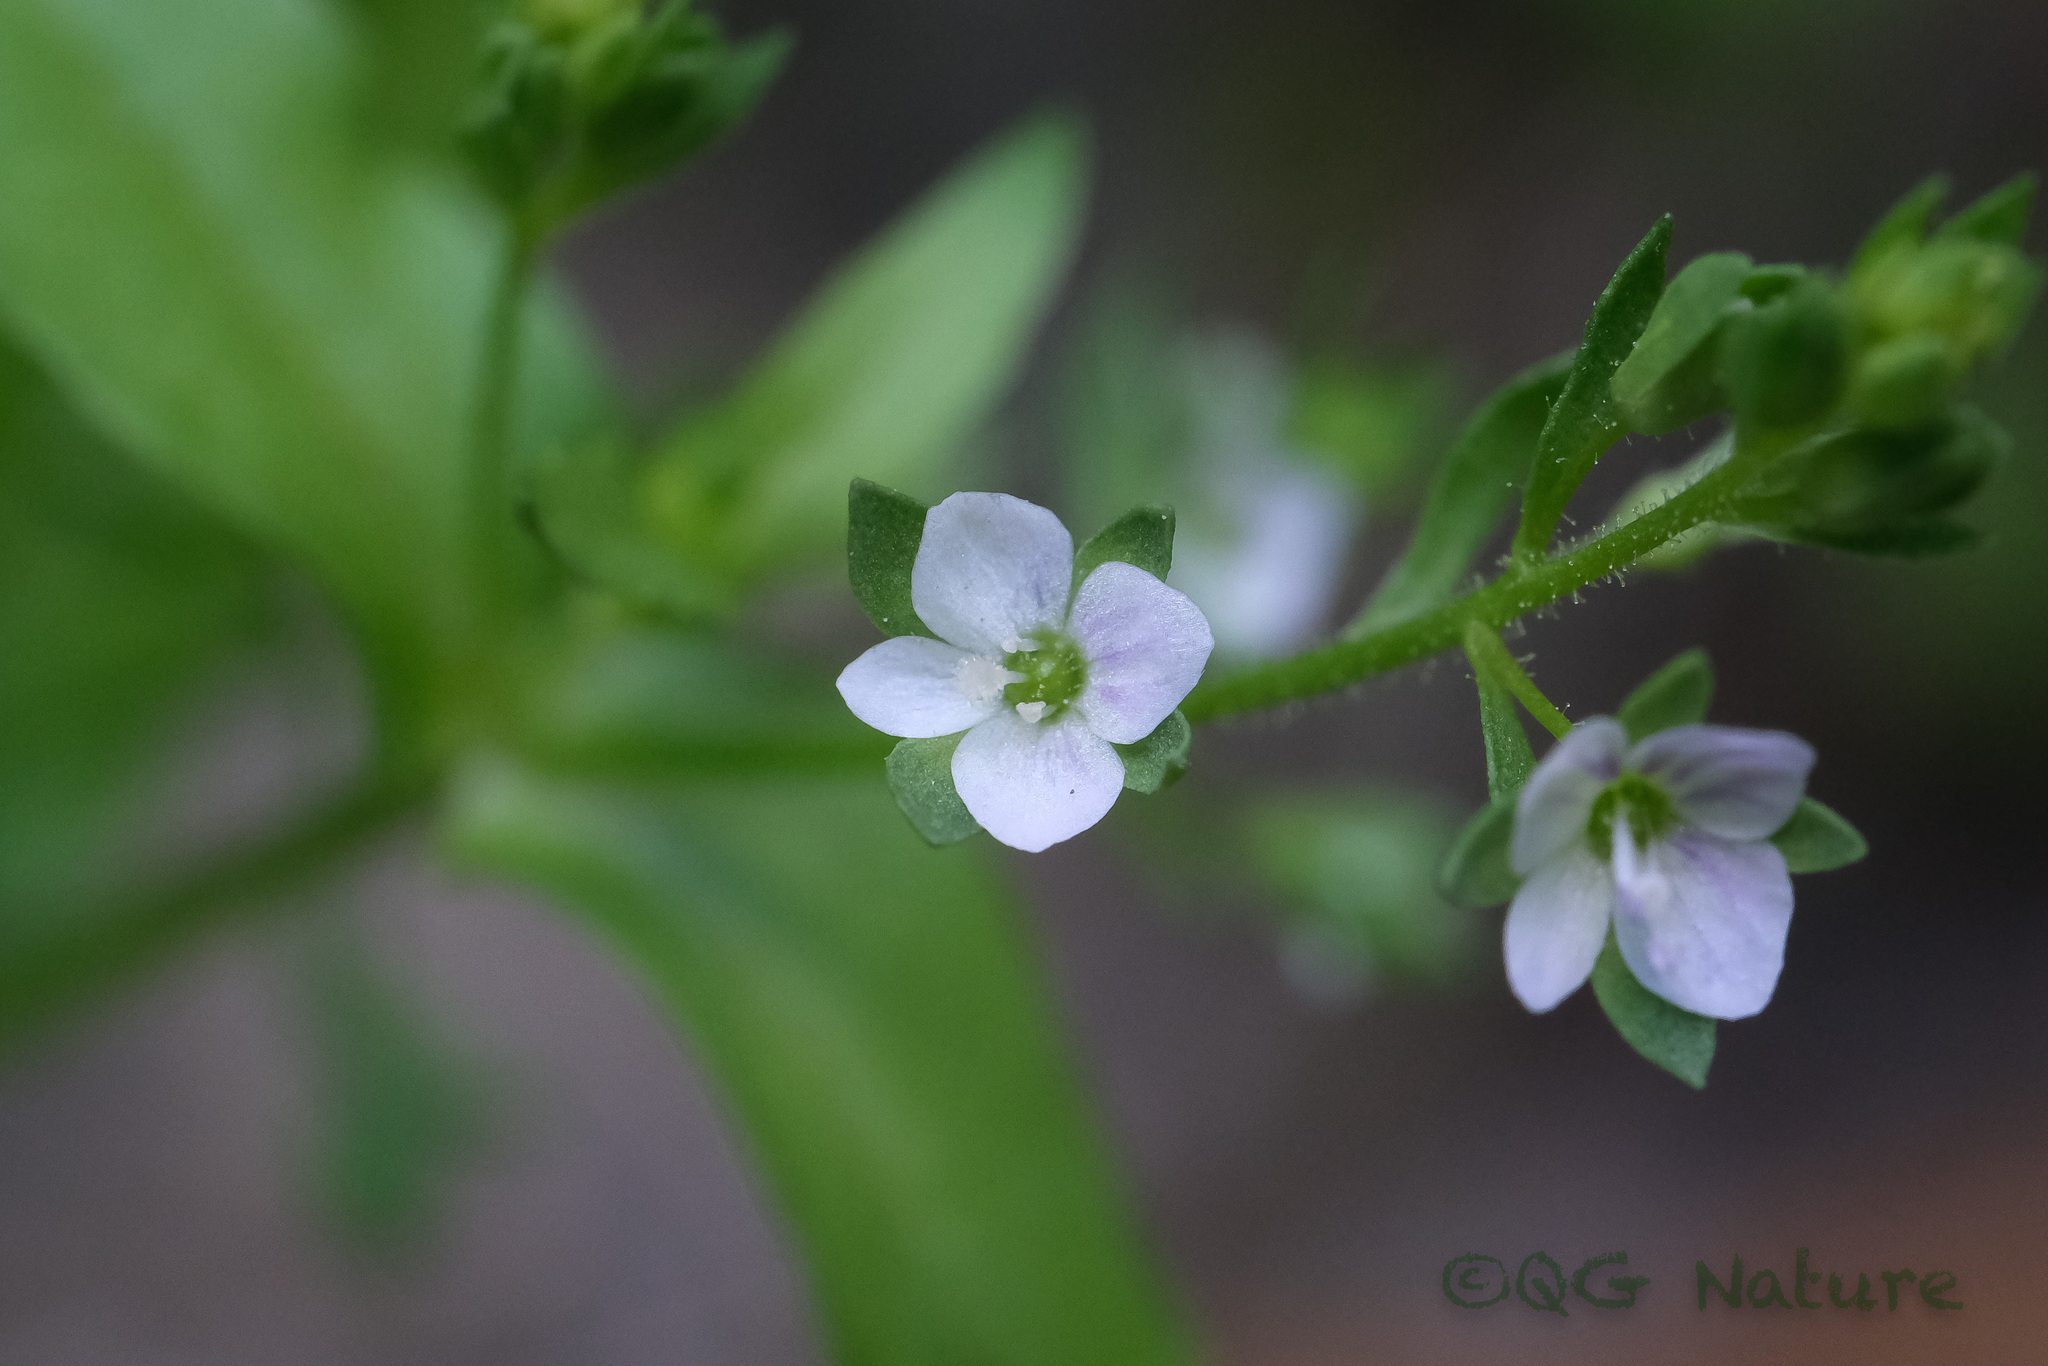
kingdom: Plantae
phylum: Tracheophyta
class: Magnoliopsida
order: Lamiales
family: Plantaginaceae
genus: Veronica
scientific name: Veronica undulata
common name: Undulate speedwell
